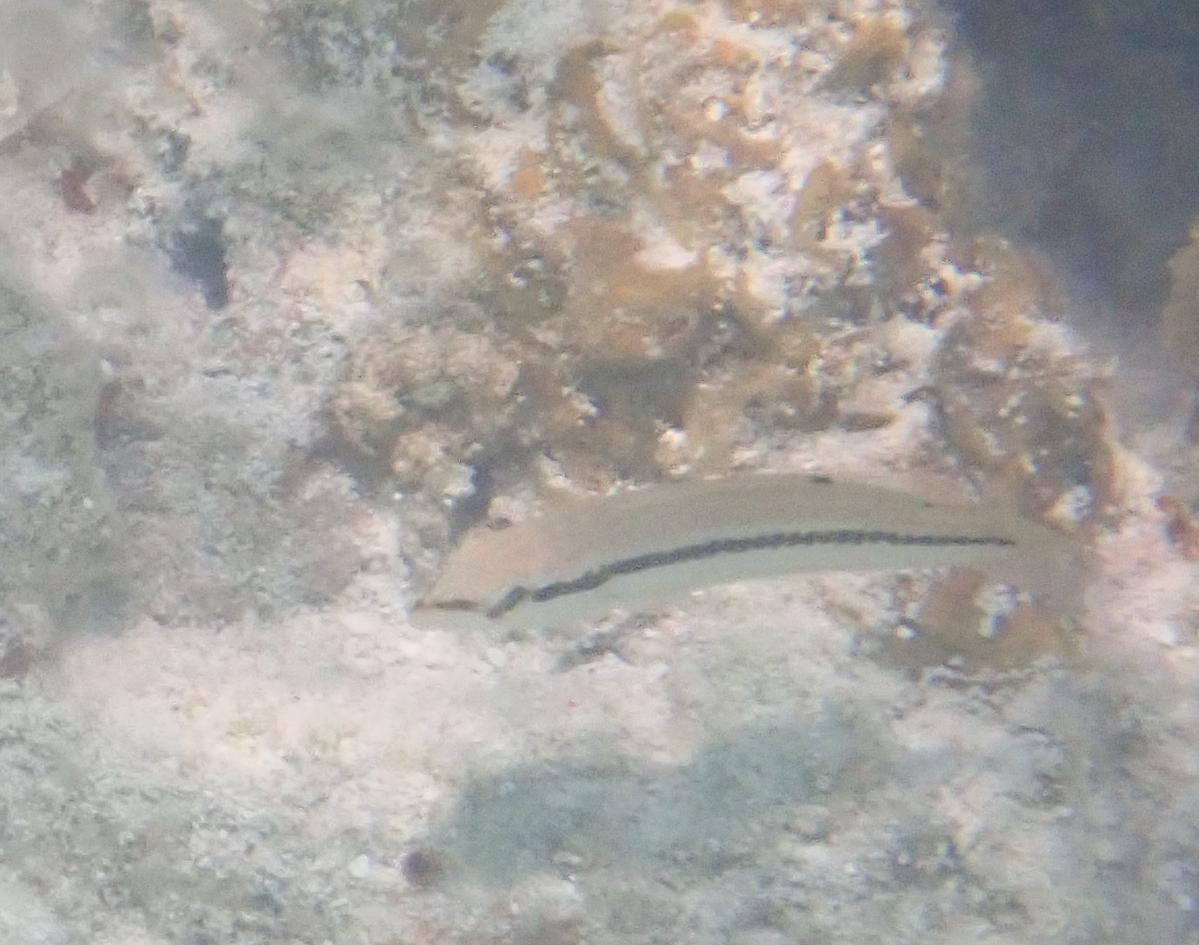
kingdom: Animalia
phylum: Chordata
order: Perciformes
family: Labridae
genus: Halichoeres
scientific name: Halichoeres bivittatus
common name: Slippery dick
